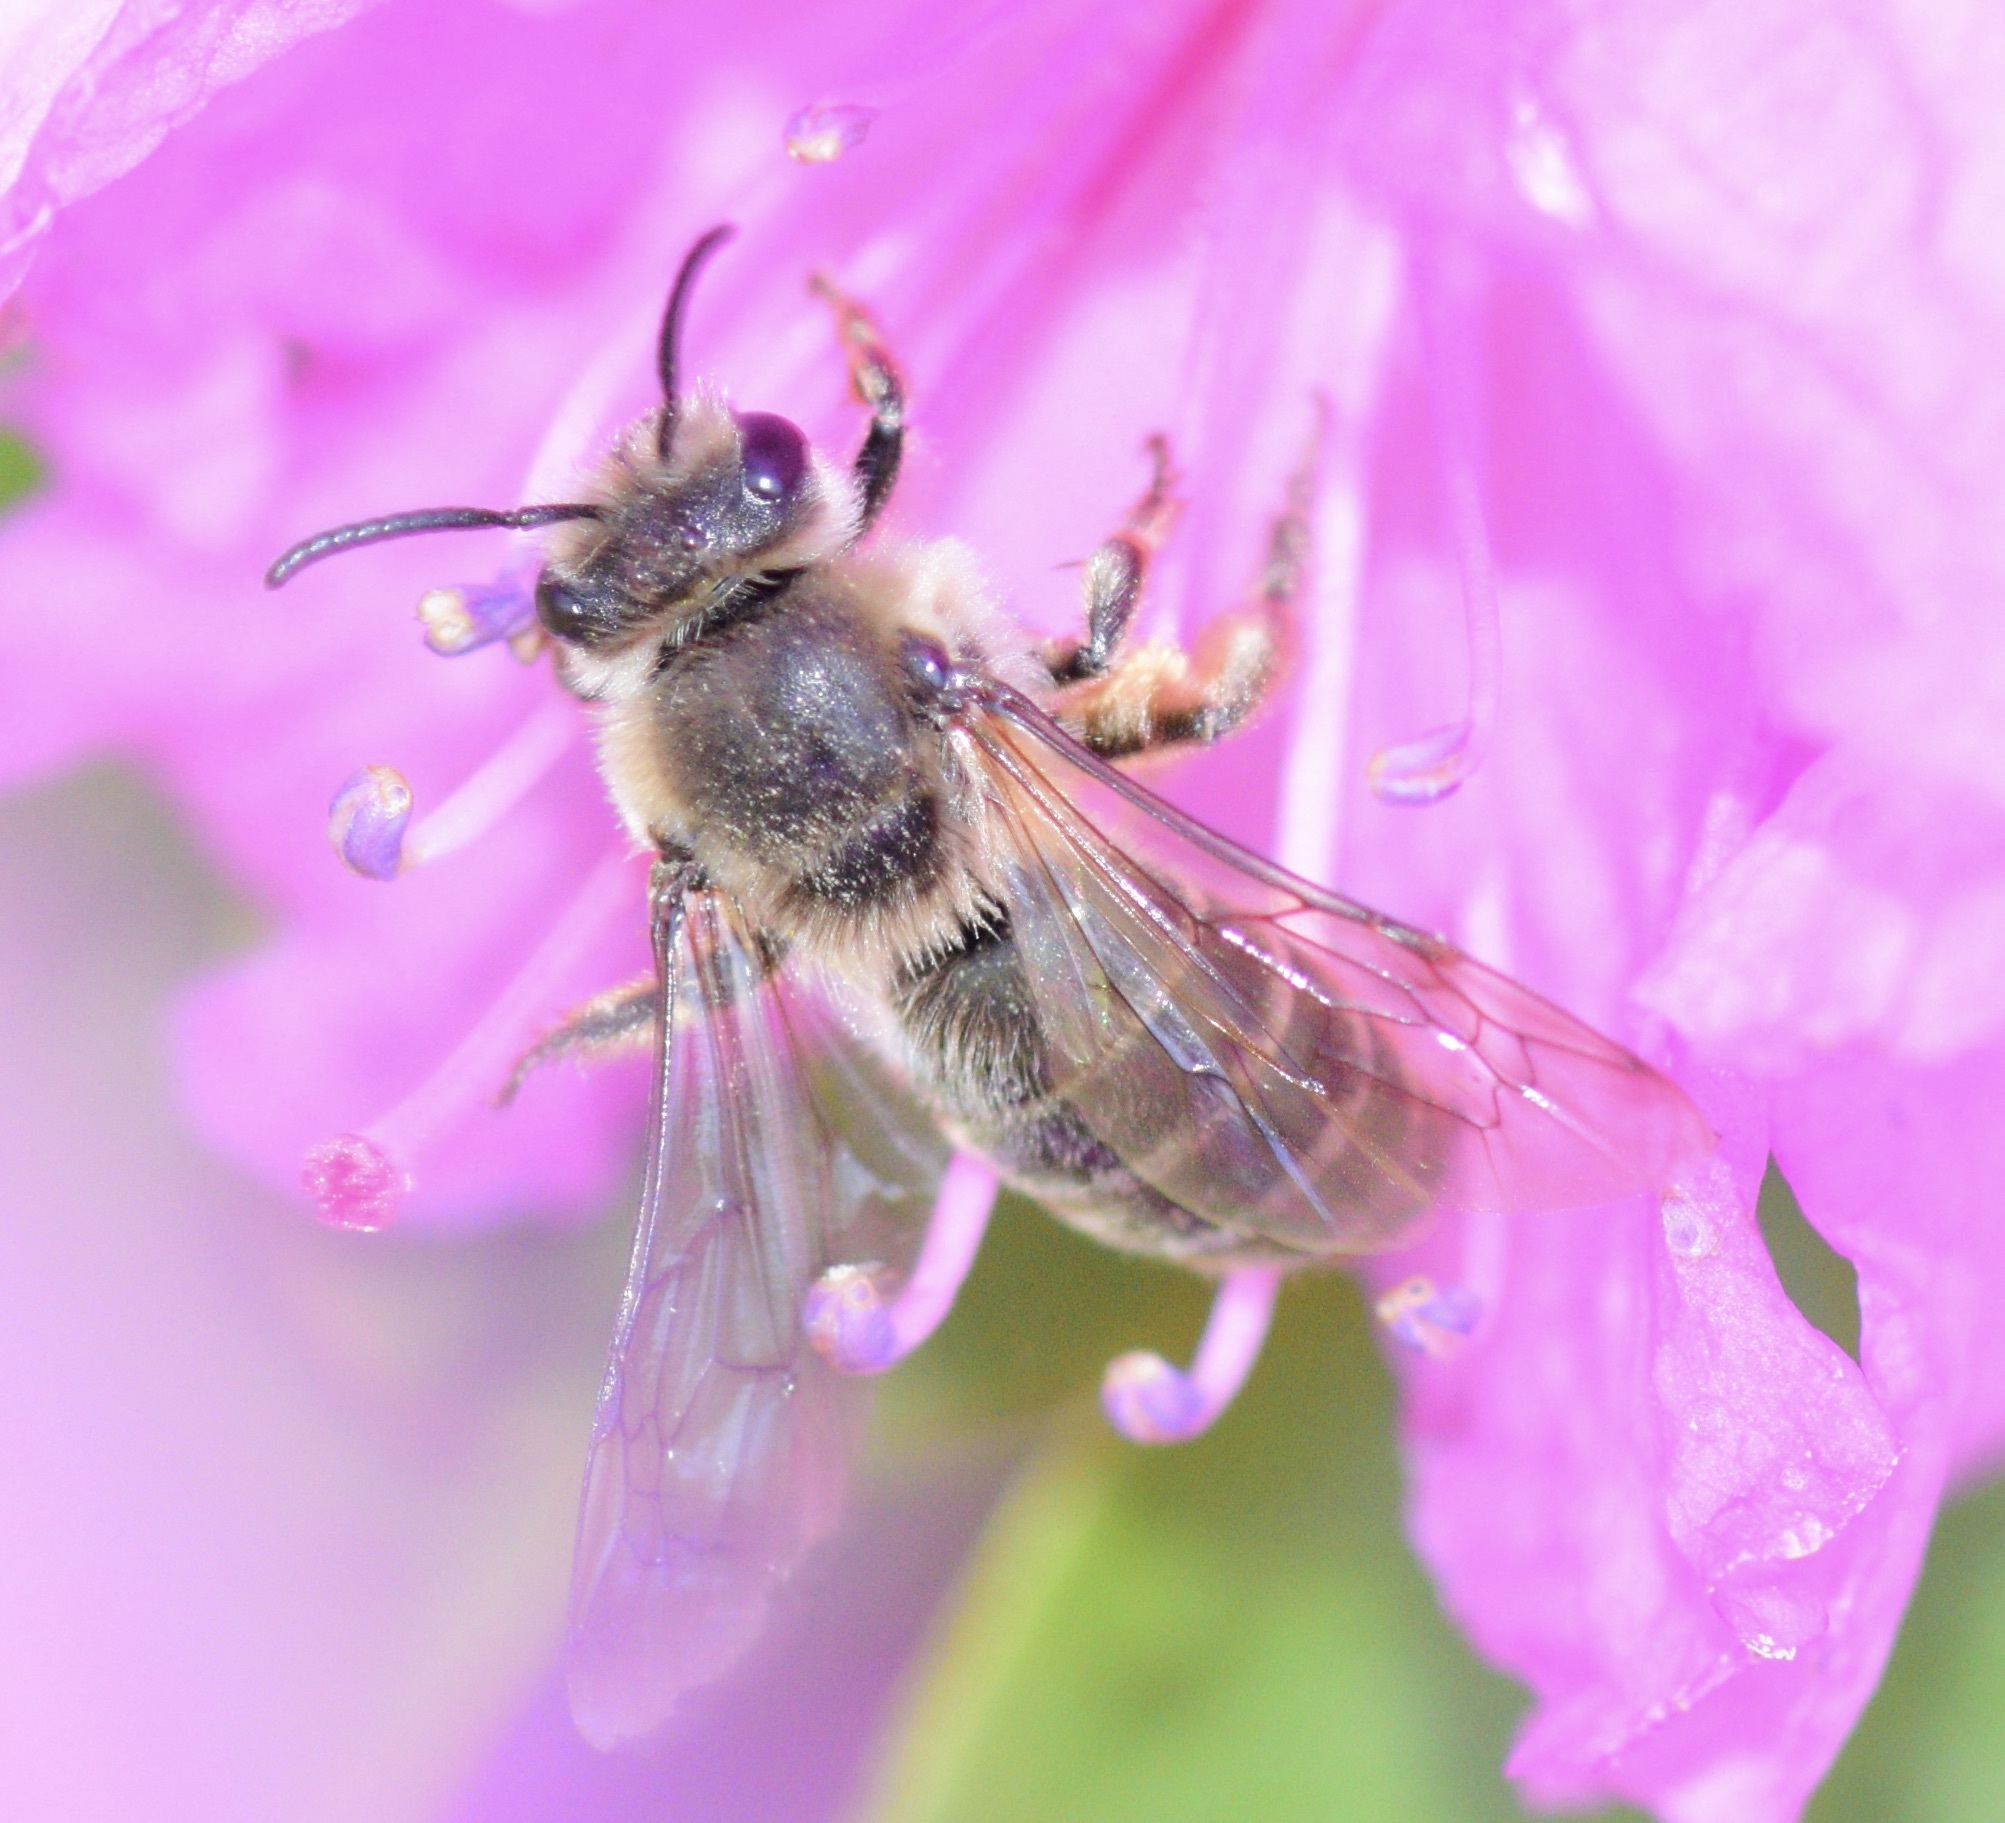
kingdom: Animalia
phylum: Arthropoda
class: Insecta
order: Hymenoptera
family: Colletidae
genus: Colletes
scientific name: Colletes inaequalis
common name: Unequal cellophane bee
